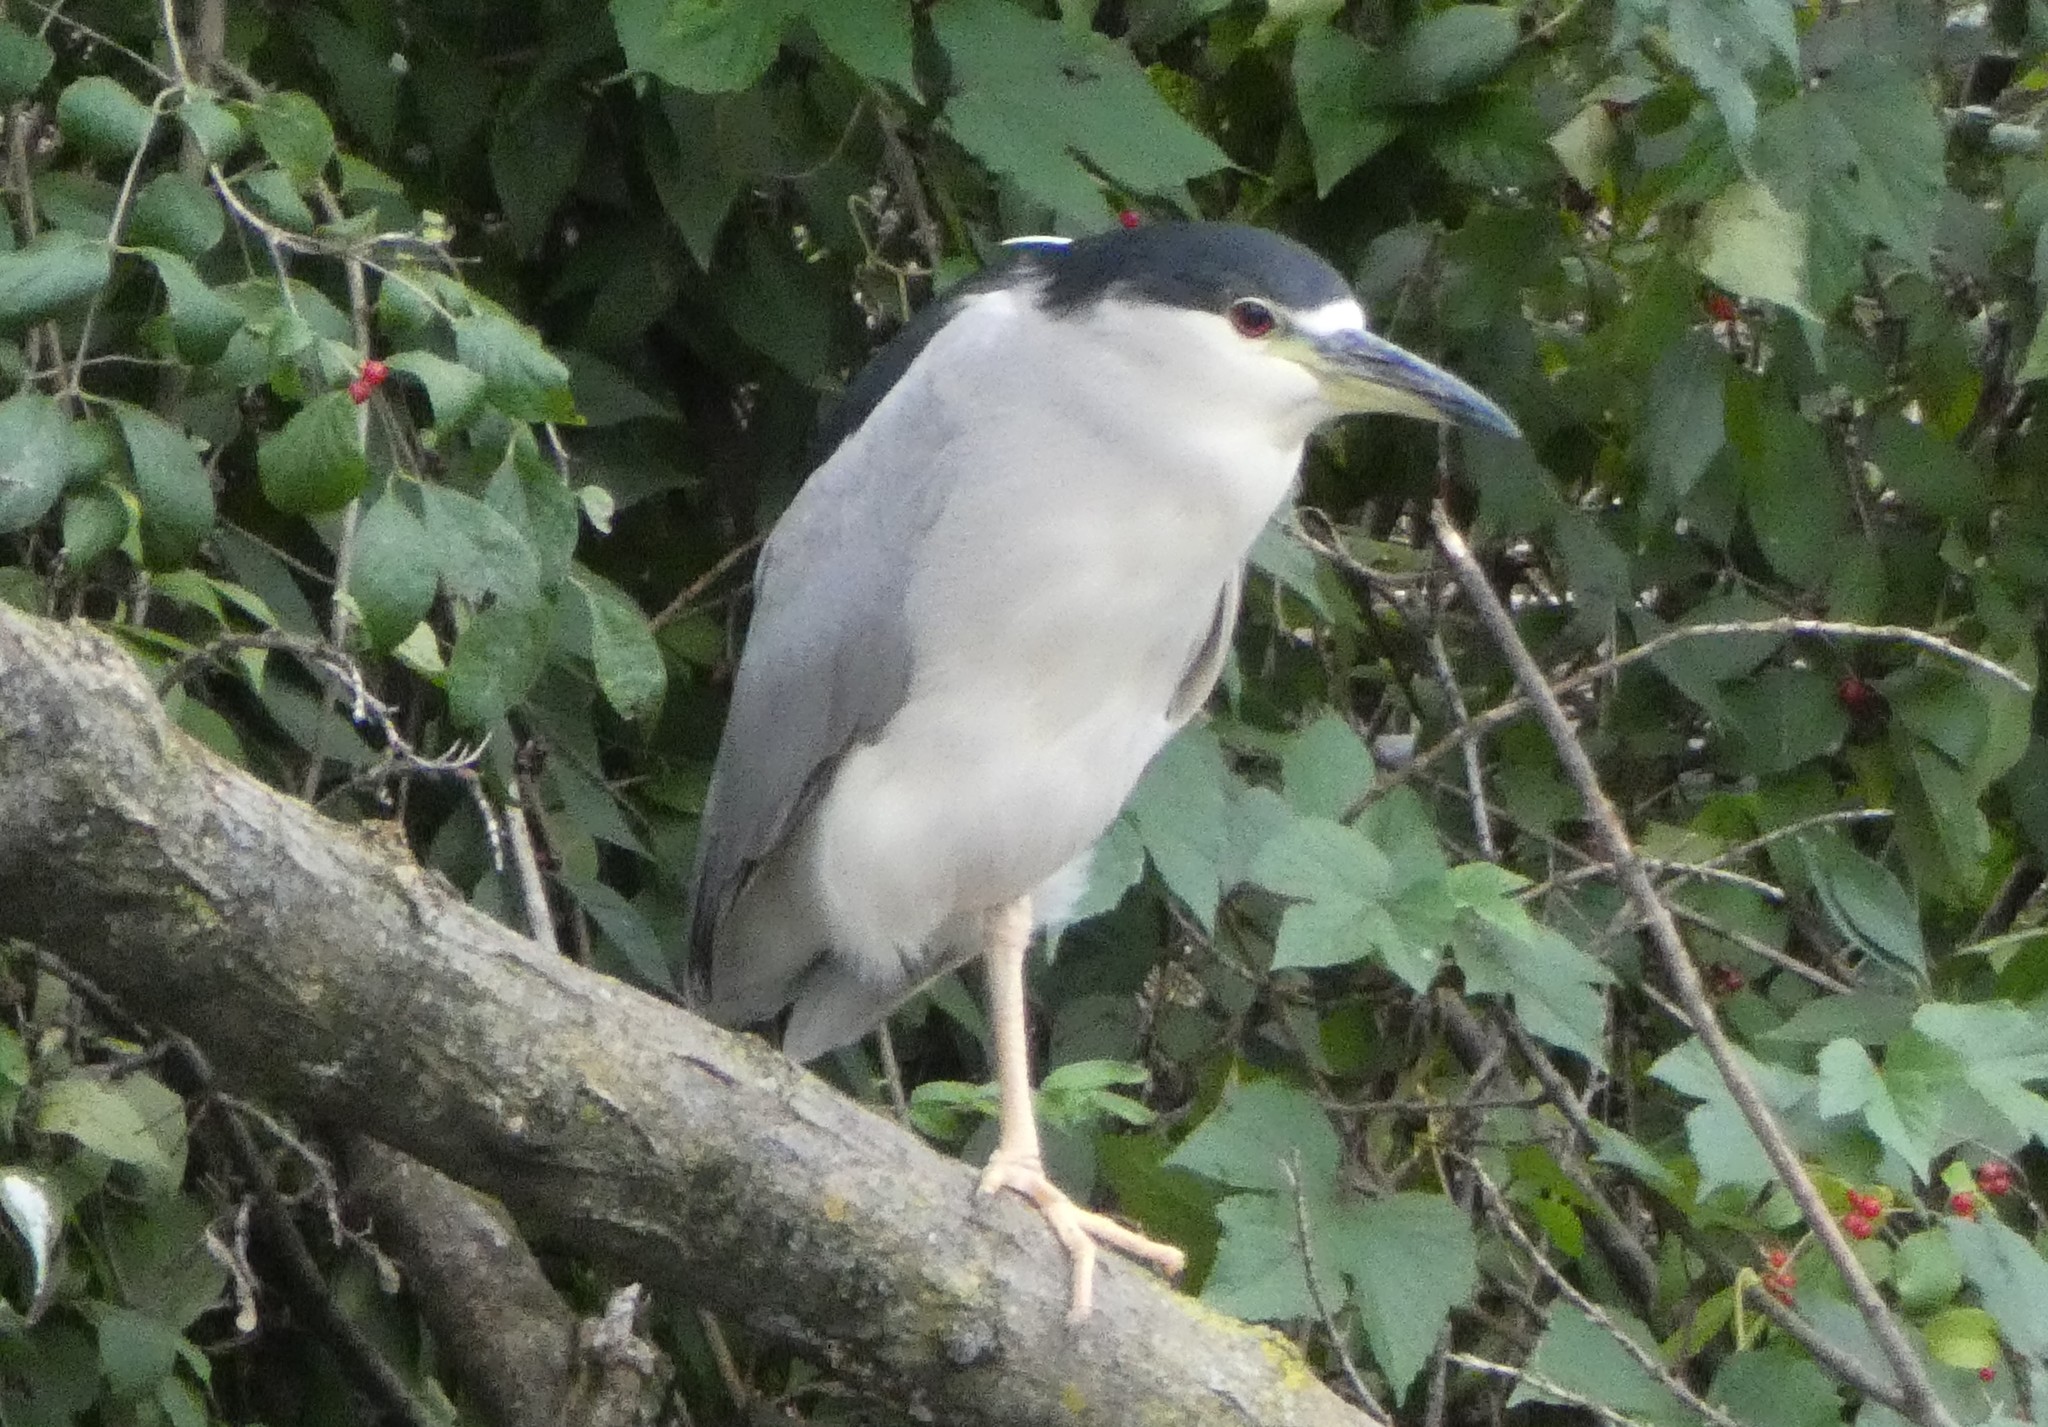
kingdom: Animalia
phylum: Chordata
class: Aves
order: Pelecaniformes
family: Ardeidae
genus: Nycticorax
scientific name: Nycticorax nycticorax
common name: Black-crowned night heron
